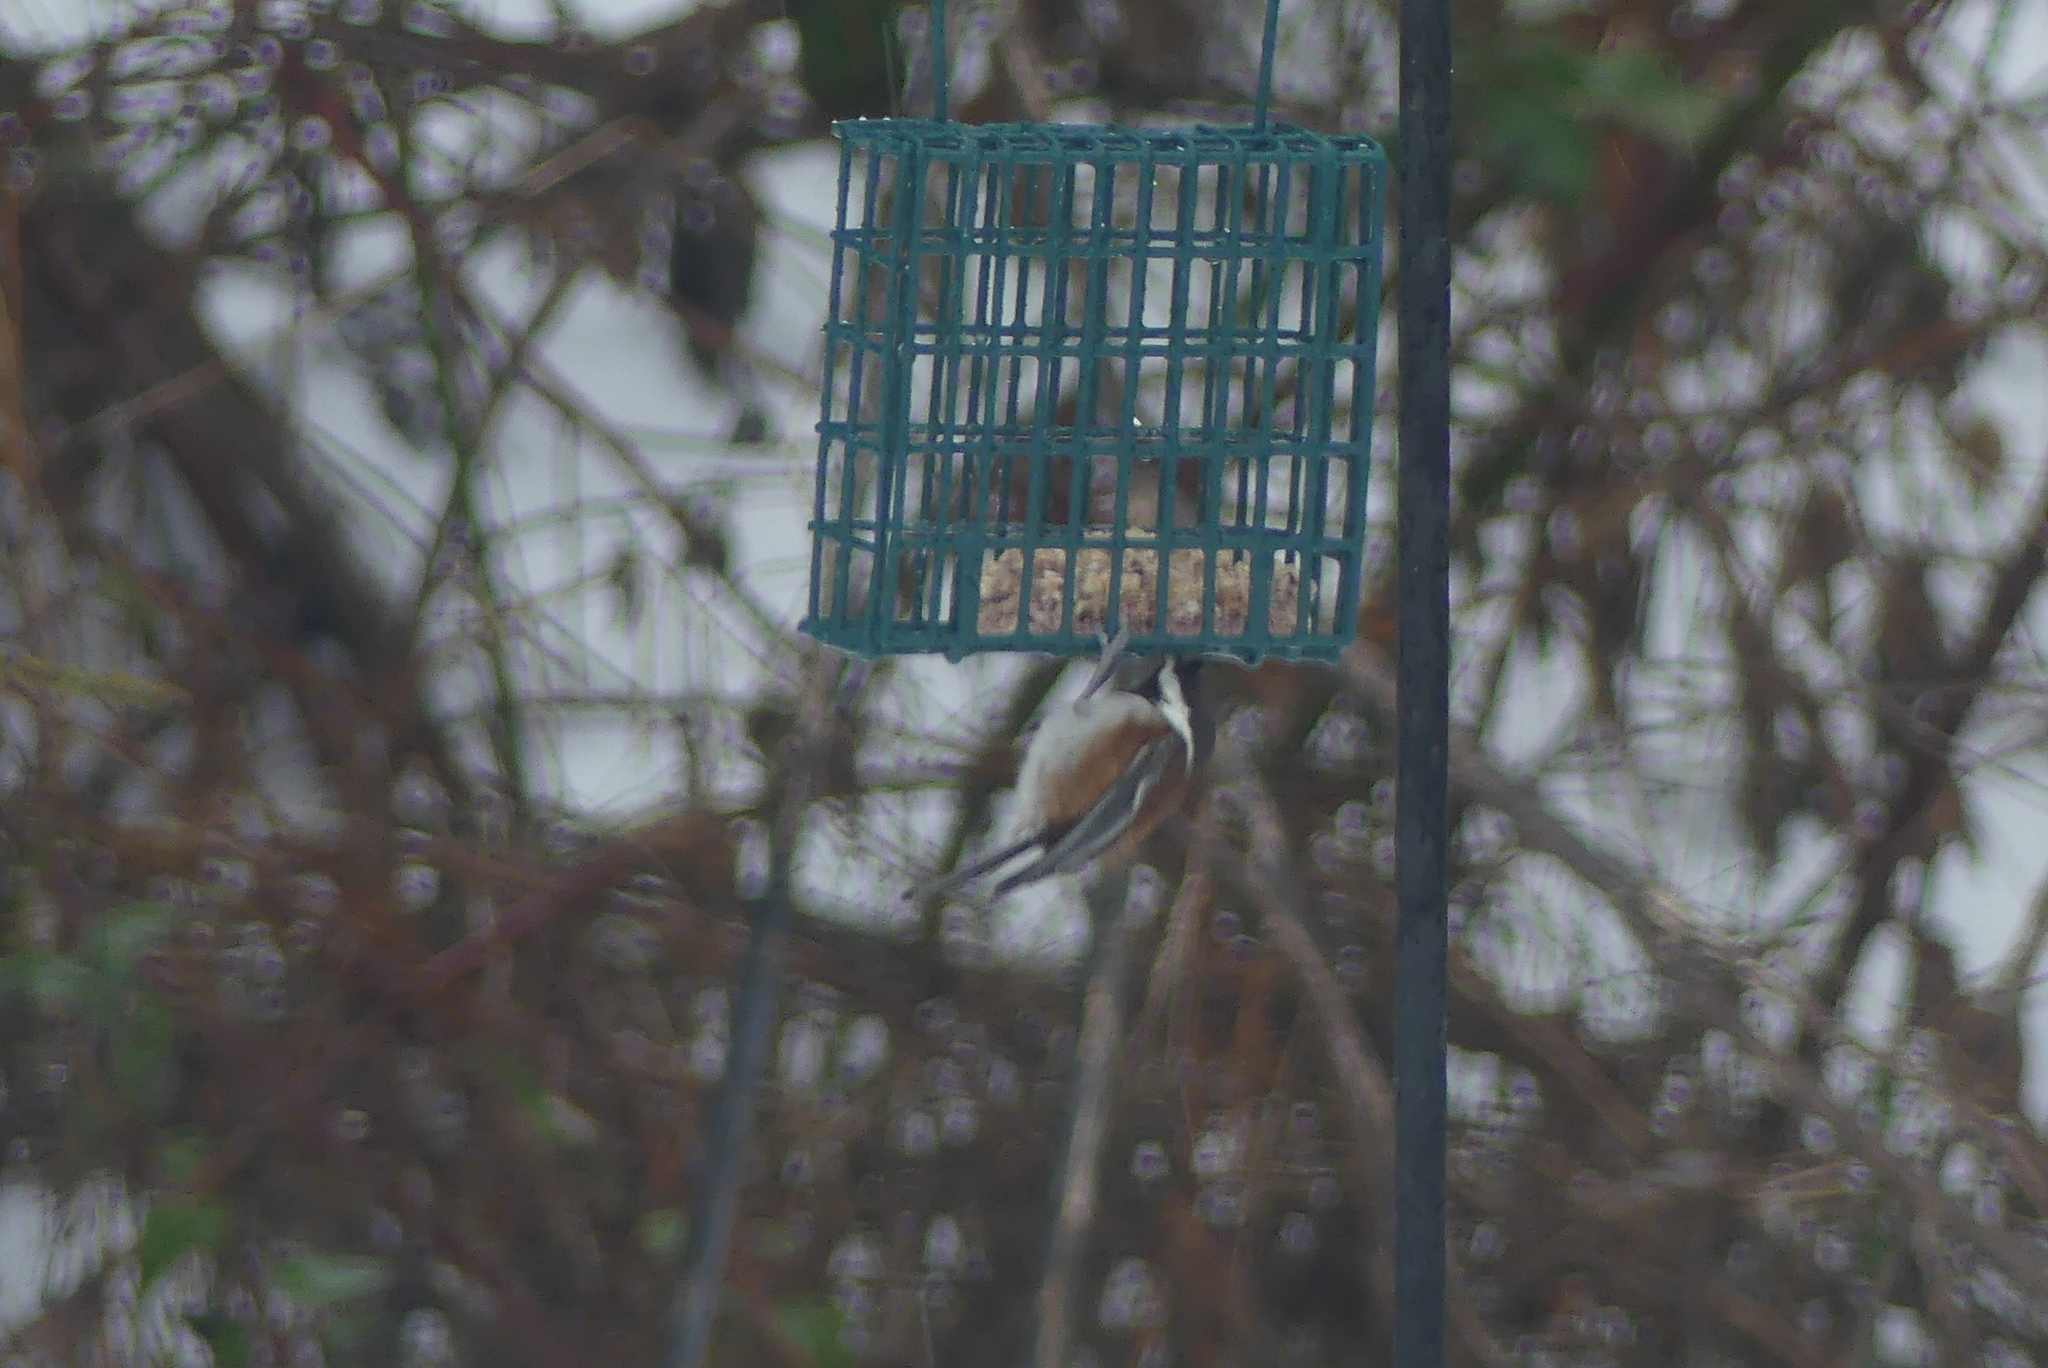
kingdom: Animalia
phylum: Chordata
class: Aves
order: Passeriformes
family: Paridae
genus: Poecile
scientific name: Poecile rufescens
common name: Chestnut-backed chickadee
